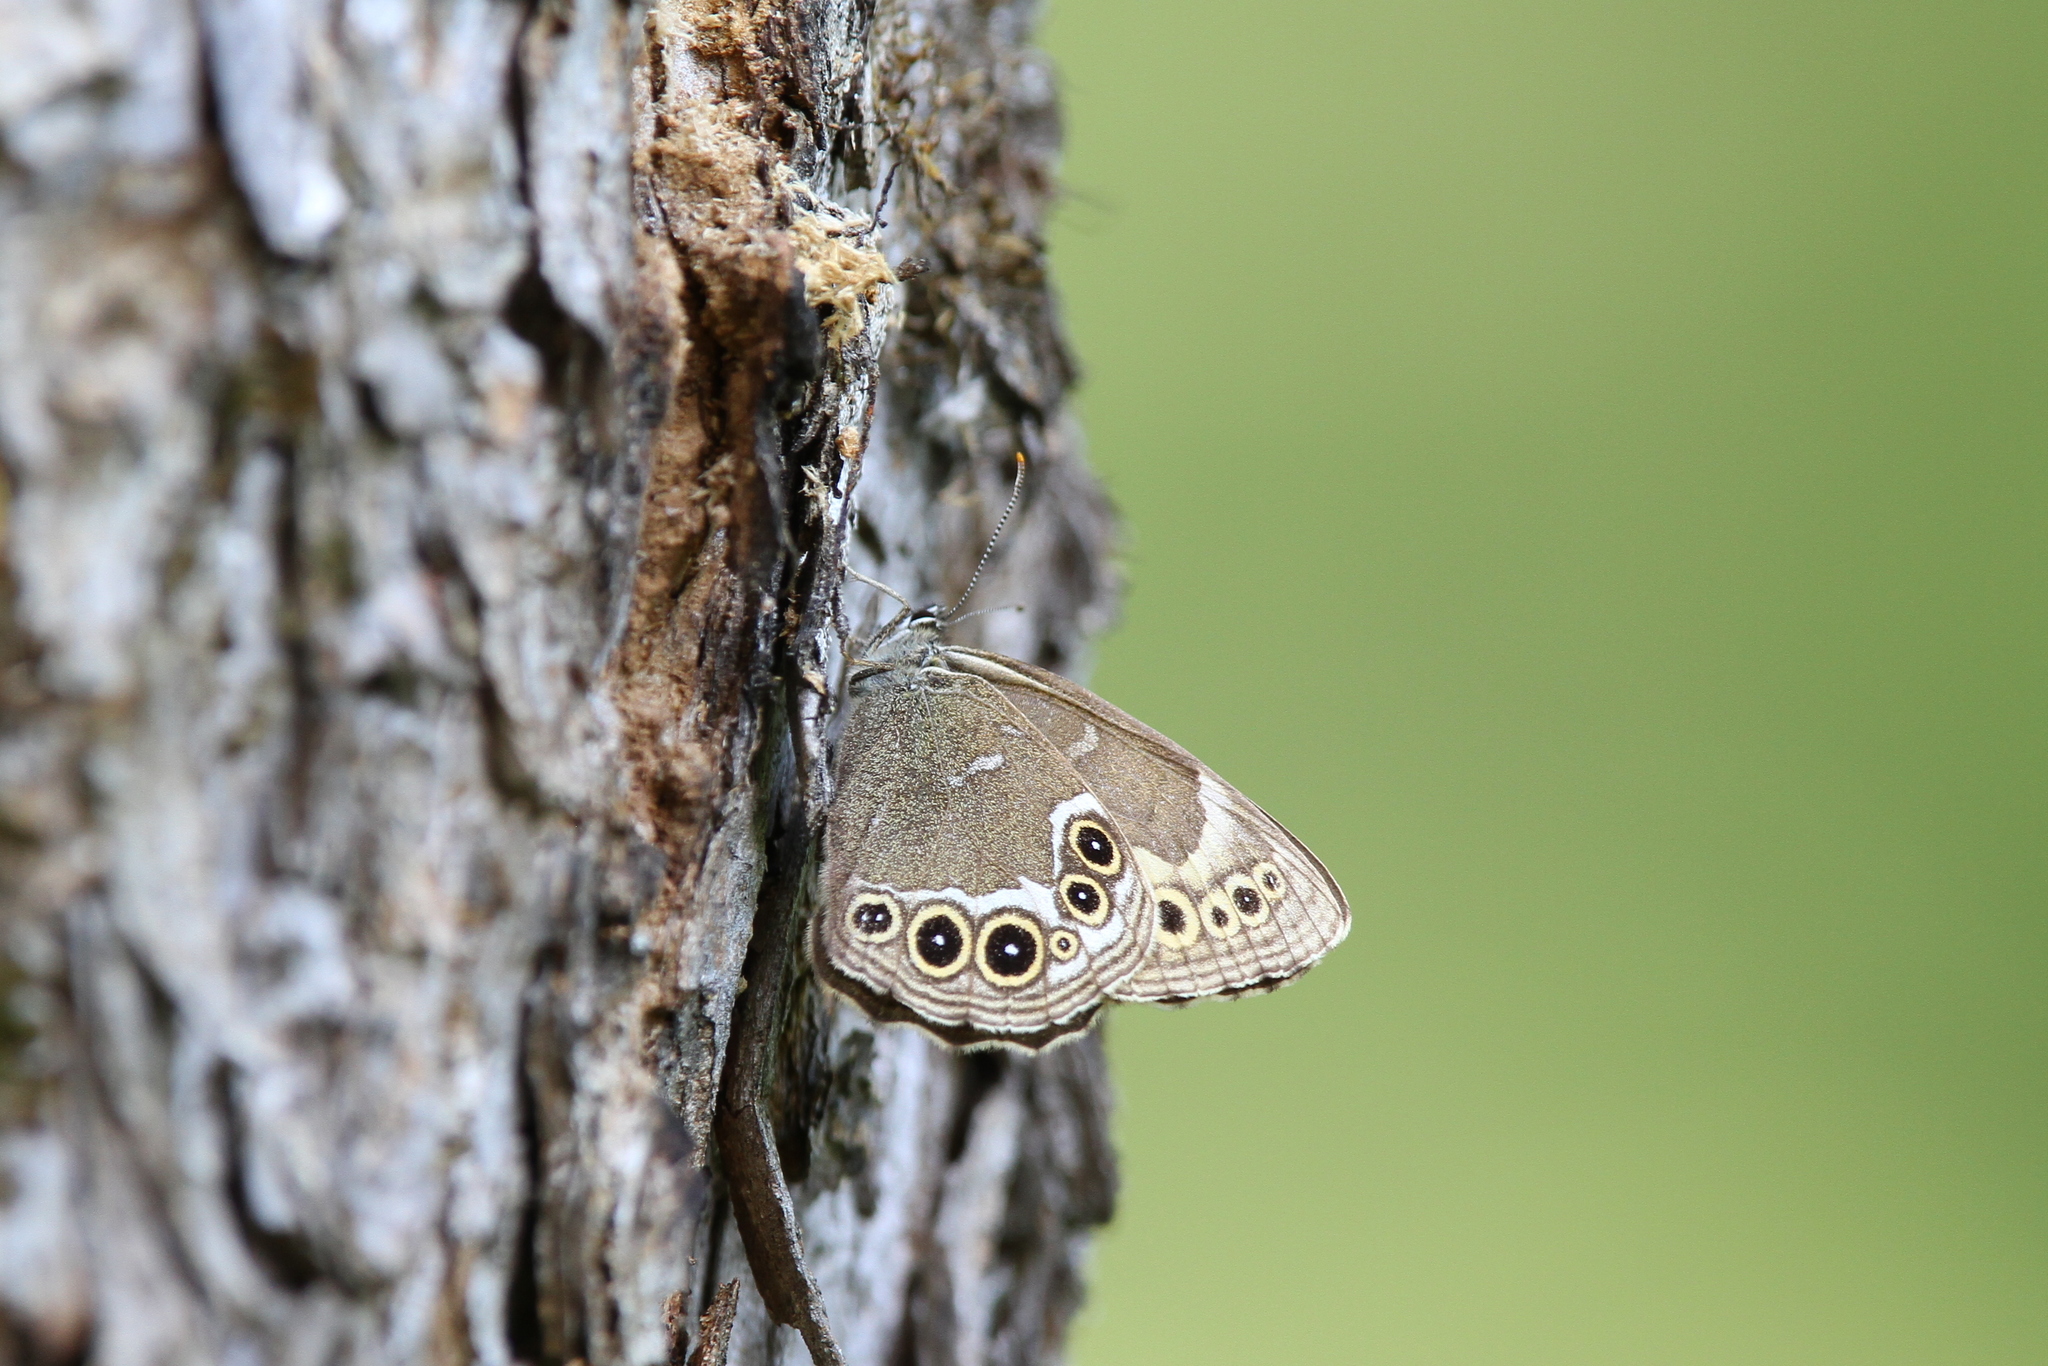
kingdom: Animalia
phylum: Arthropoda
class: Insecta
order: Lepidoptera
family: Nymphalidae
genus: Pararge
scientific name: Pararge Lopinga achine
